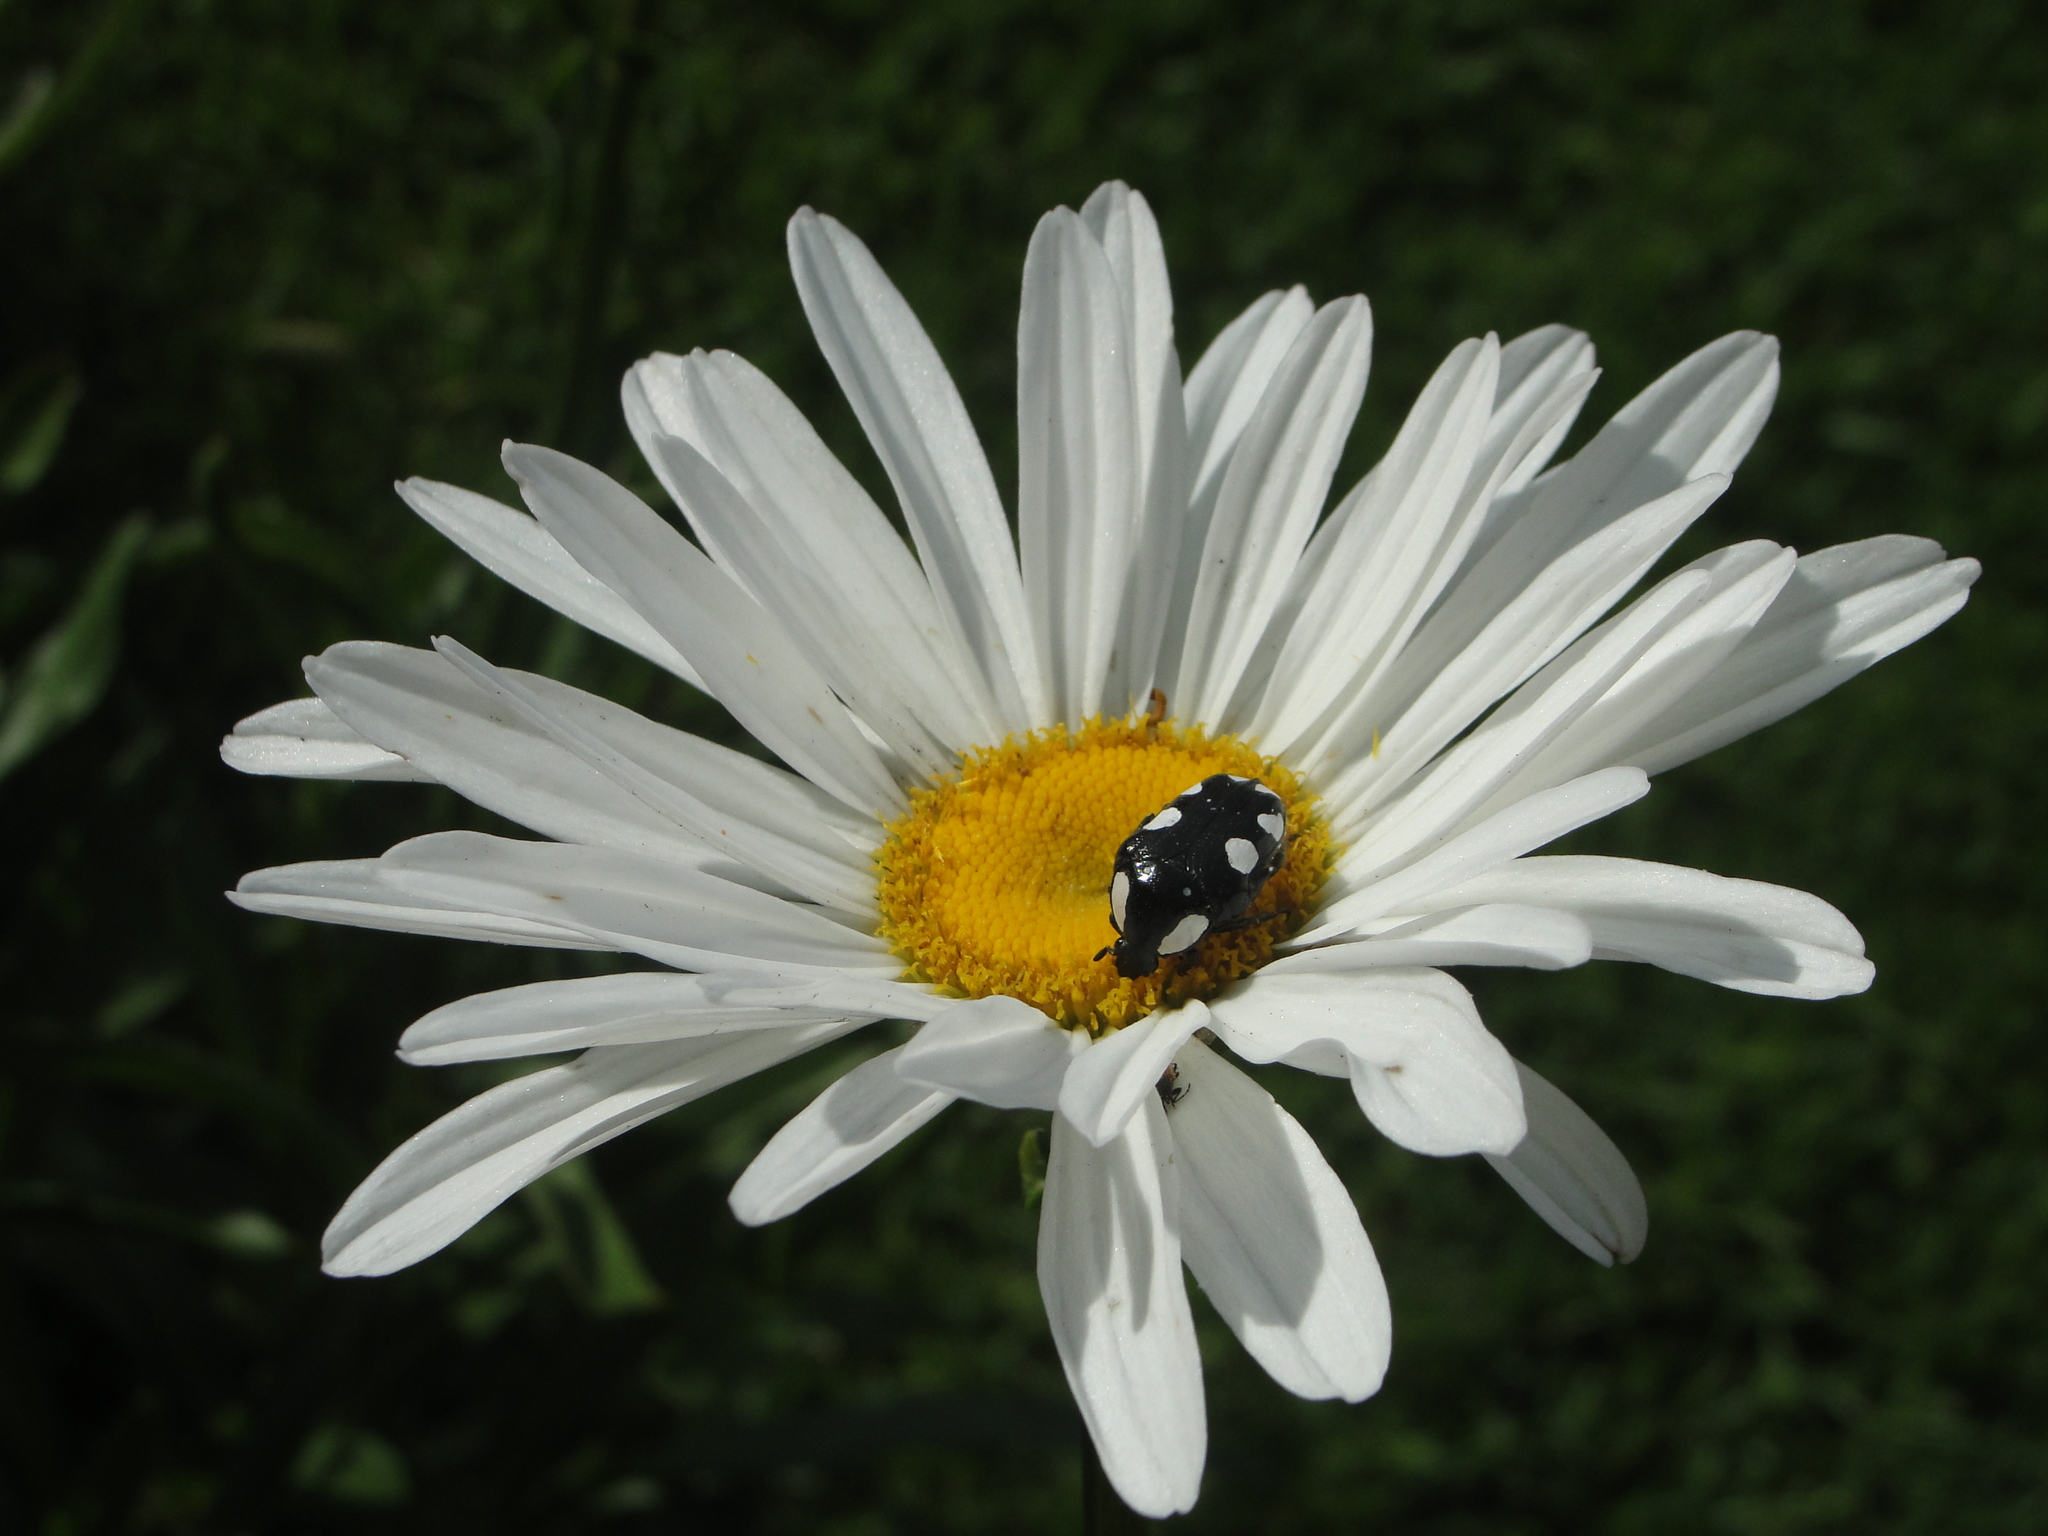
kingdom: Animalia
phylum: Arthropoda
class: Insecta
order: Coleoptera
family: Scarabaeidae
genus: Mausoleopsis
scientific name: Mausoleopsis amabilis
